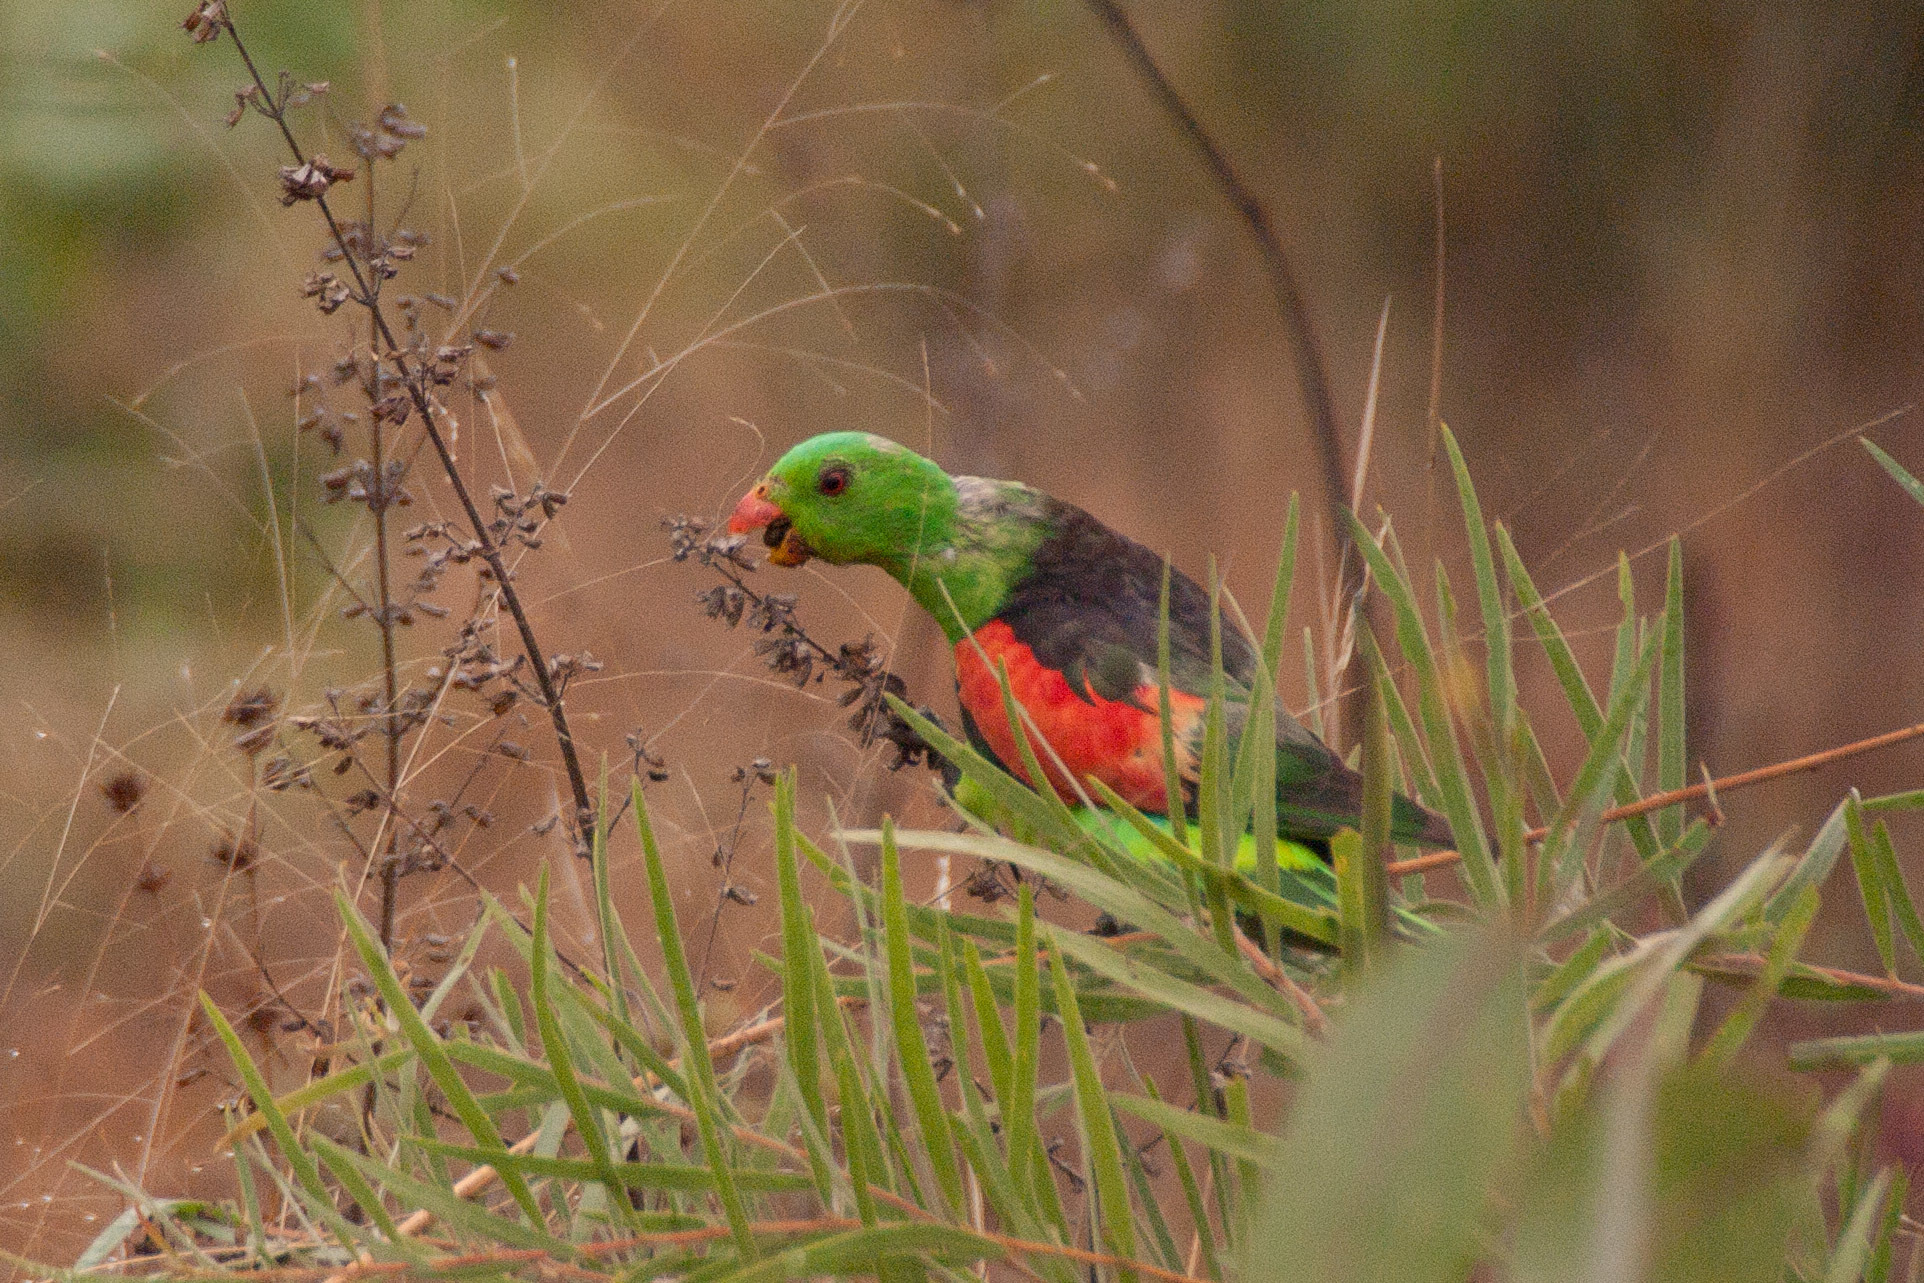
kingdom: Animalia
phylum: Chordata
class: Aves
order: Psittaciformes
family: Psittacidae
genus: Aprosmictus
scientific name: Aprosmictus erythropterus
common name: Red-winged parrot
